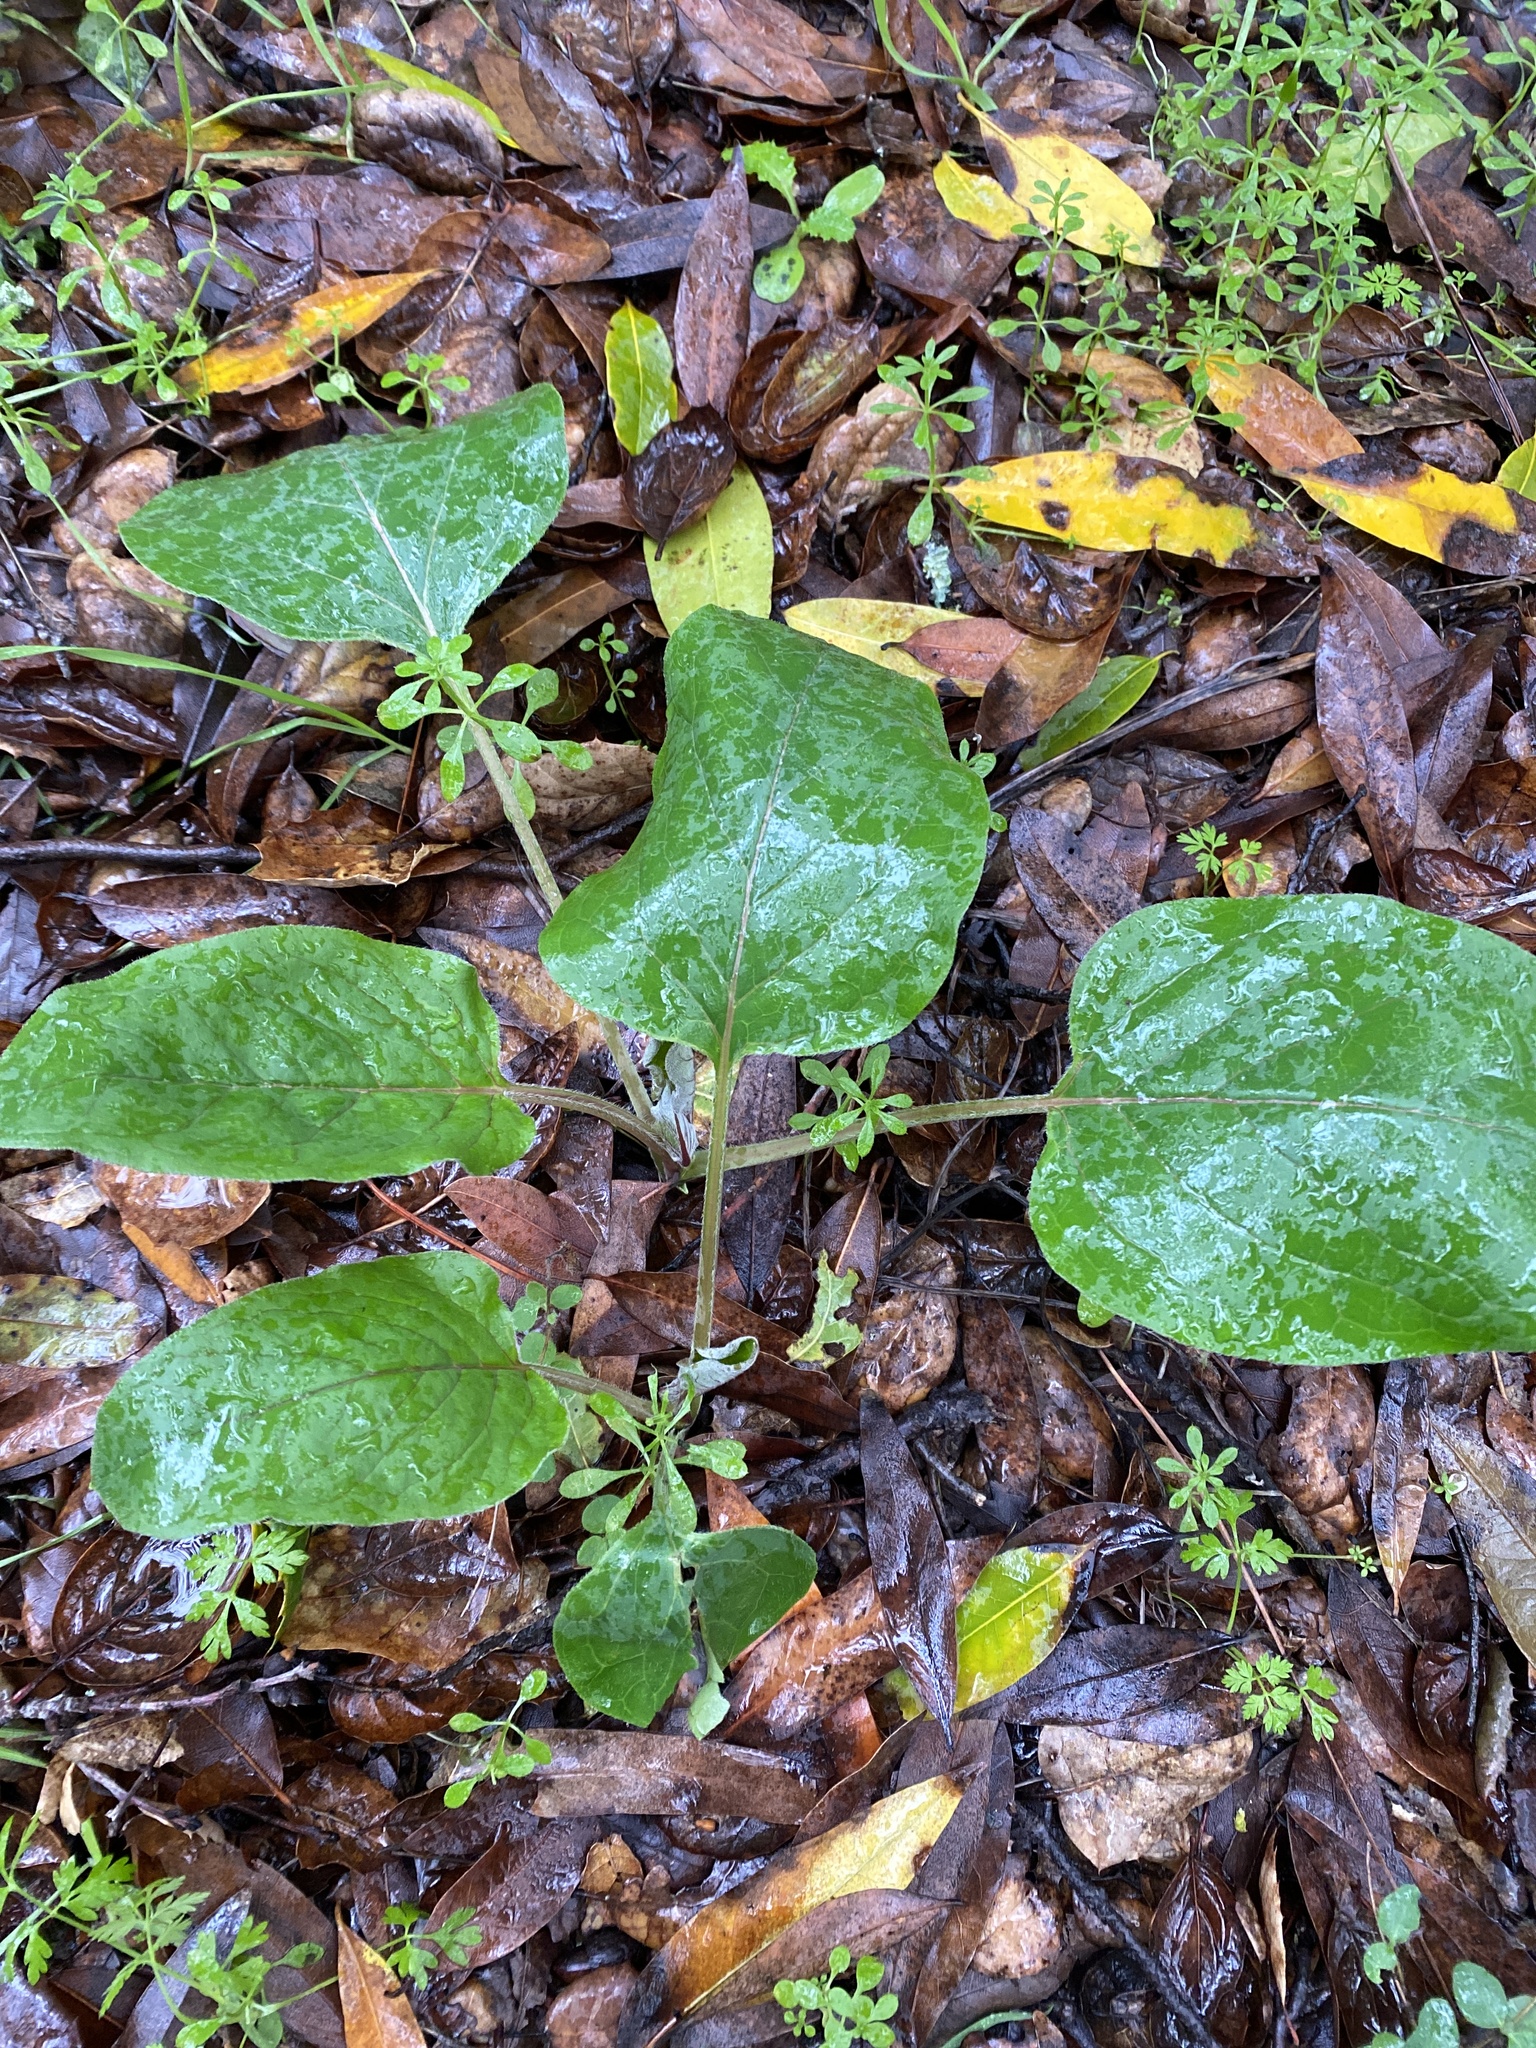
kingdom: Plantae
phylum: Tracheophyta
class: Magnoliopsida
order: Boraginales
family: Boraginaceae
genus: Adelinia
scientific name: Adelinia grande
